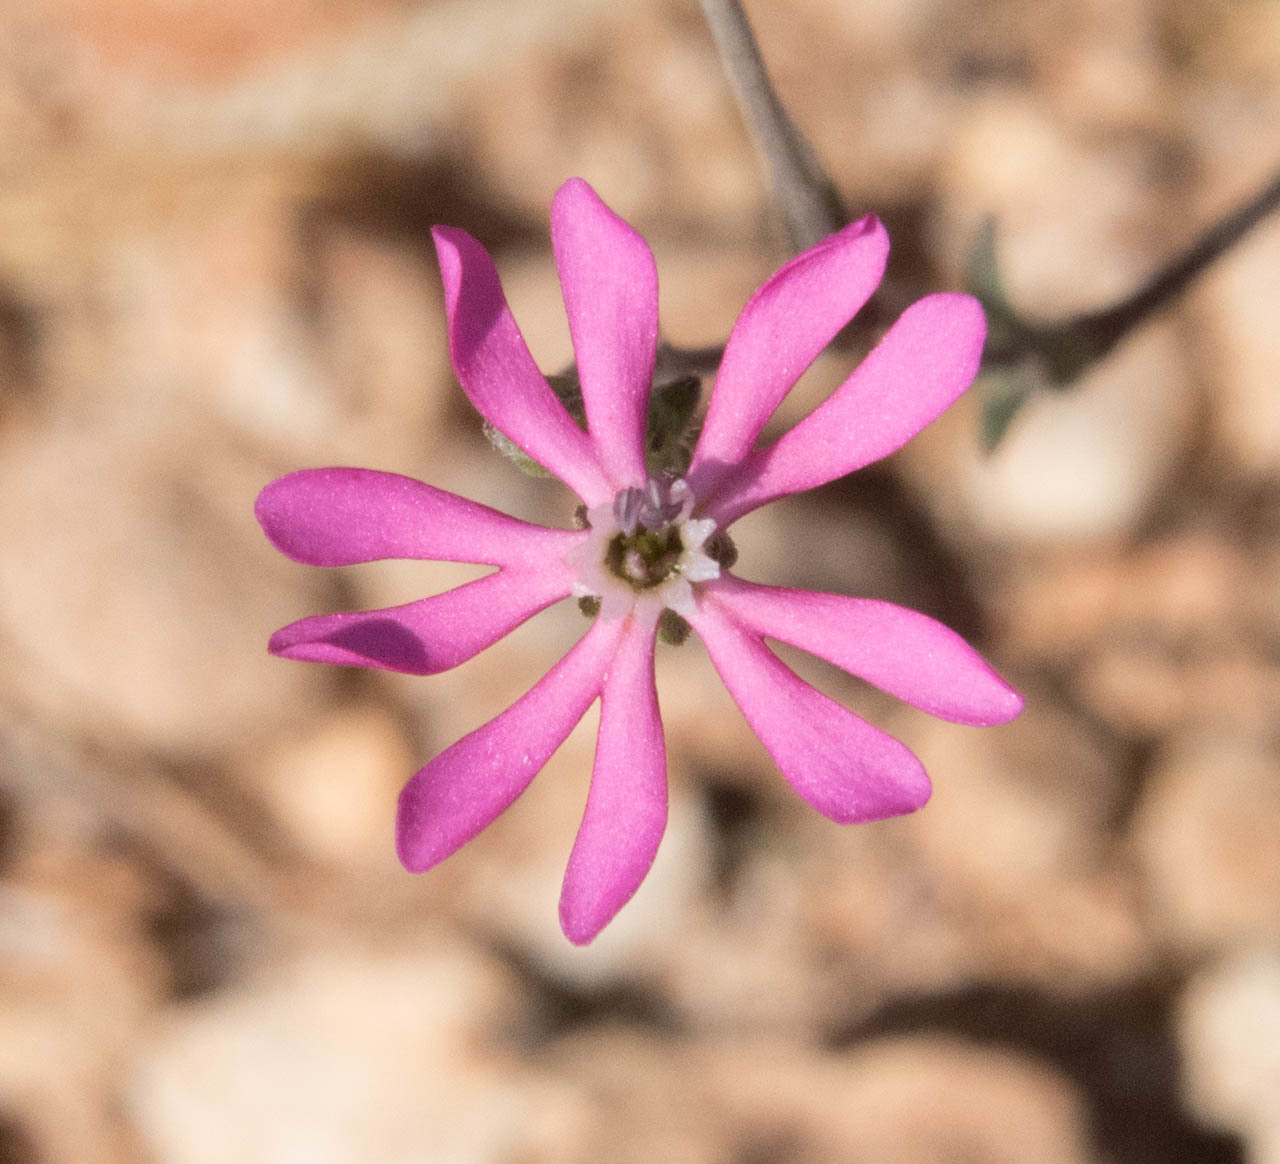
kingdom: Plantae
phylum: Tracheophyta
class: Magnoliopsida
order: Caryophyllales
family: Caryophyllaceae
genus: Silene
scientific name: Silene colorata
